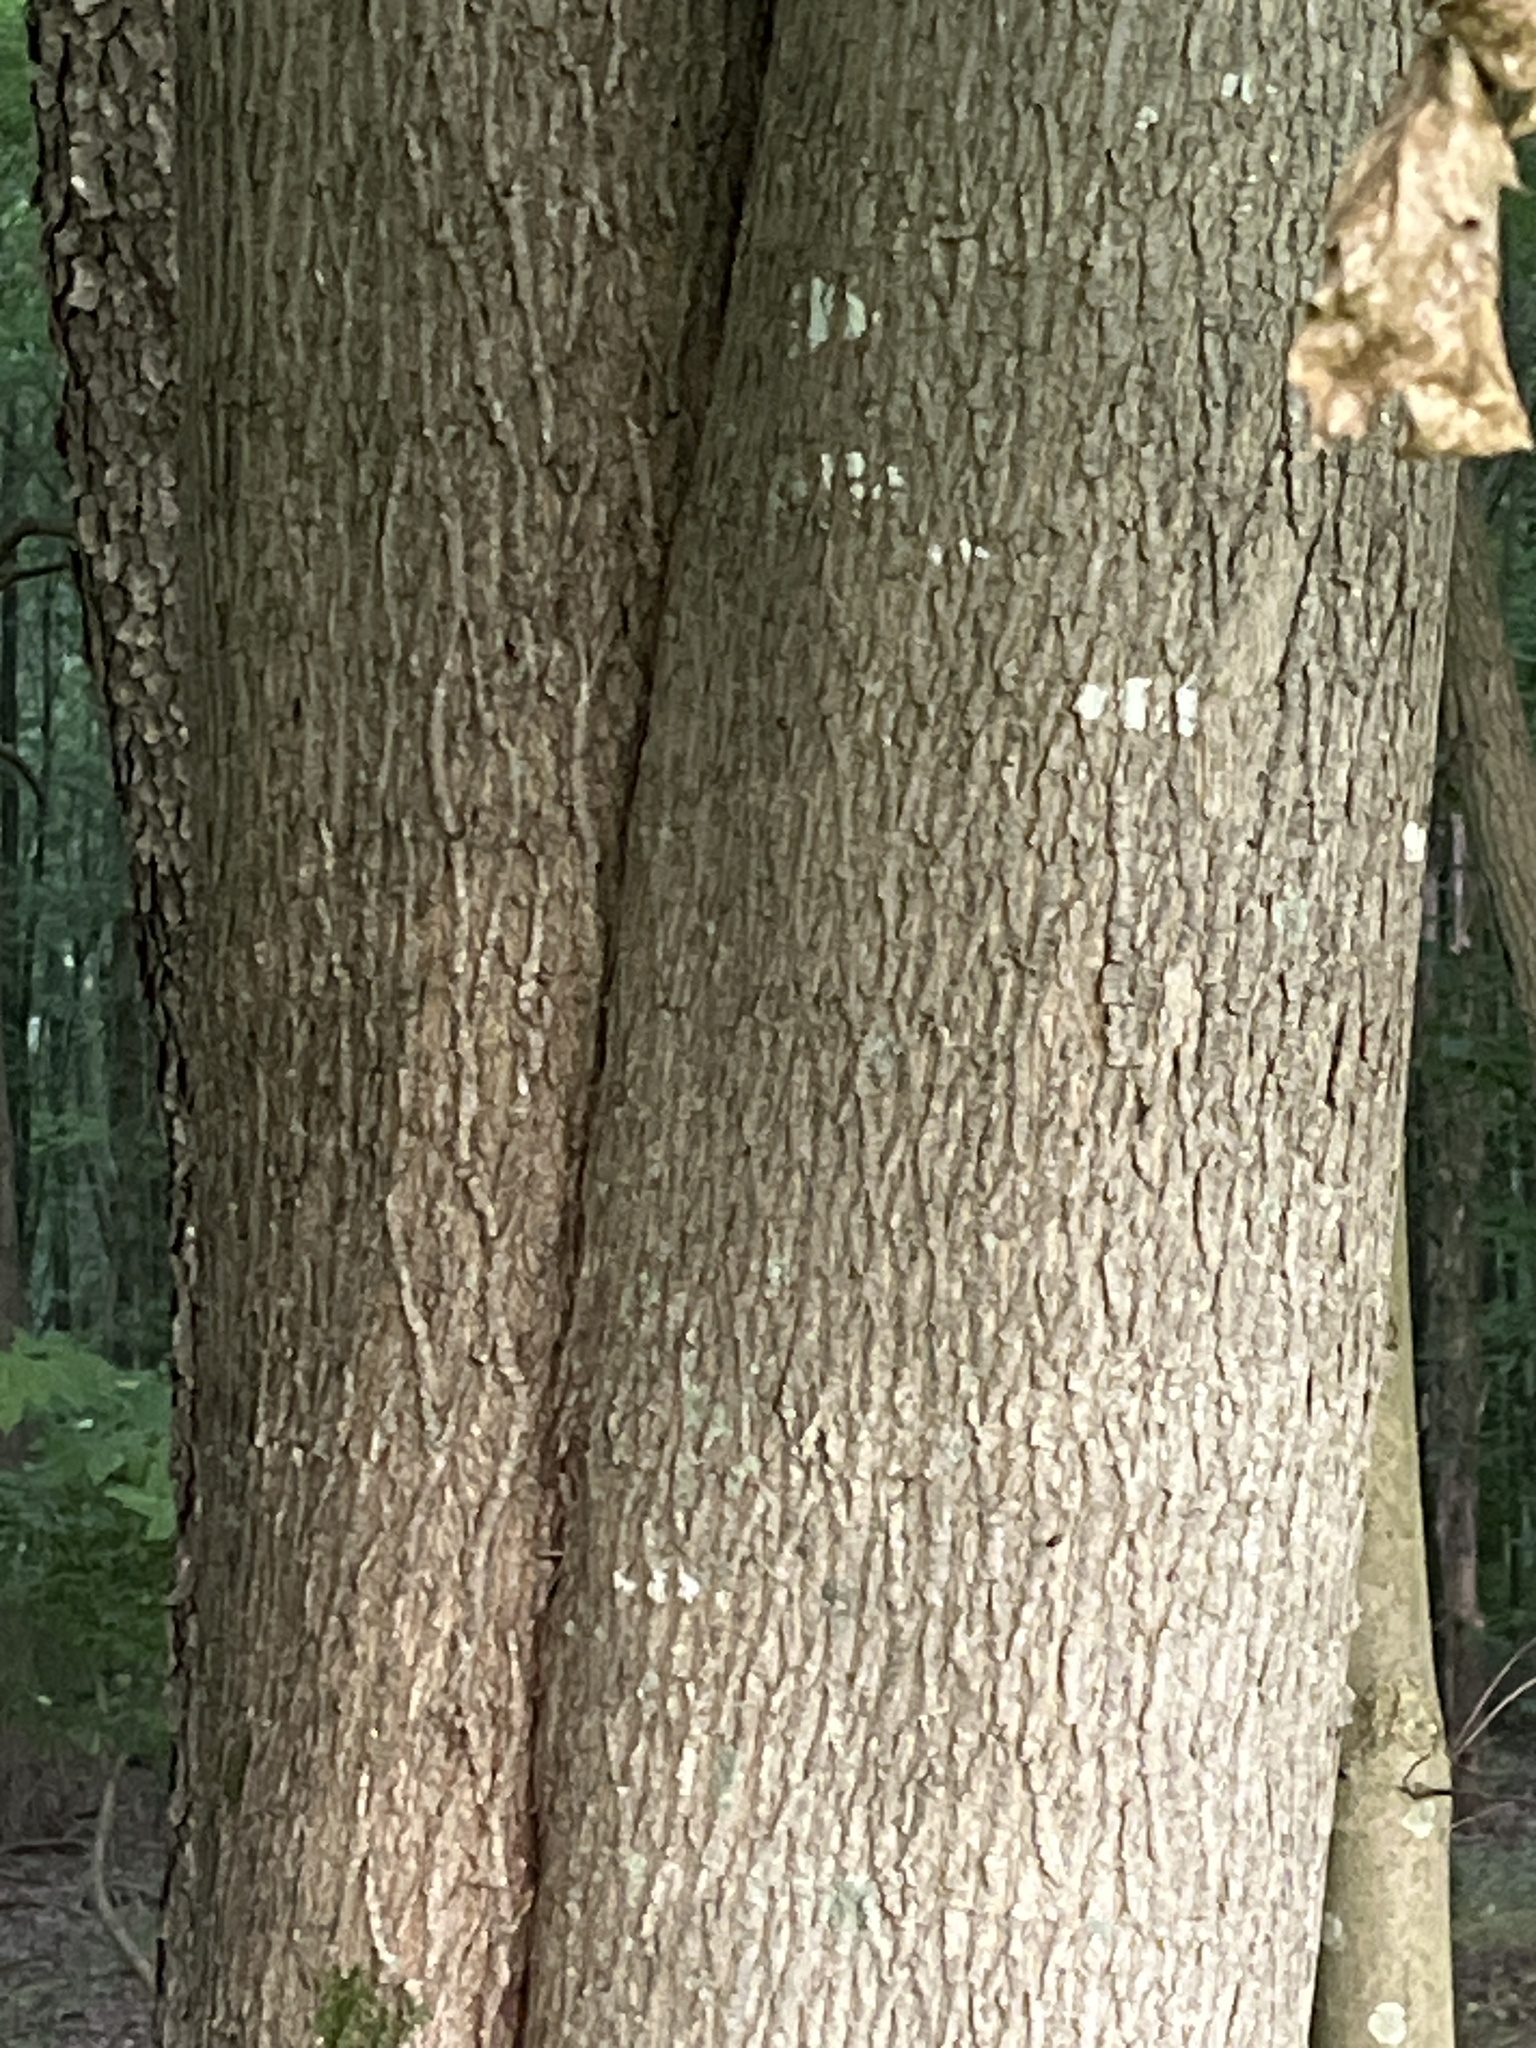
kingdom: Plantae
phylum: Tracheophyta
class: Magnoliopsida
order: Sapindales
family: Sapindaceae
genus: Acer
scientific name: Acer platanoides
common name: Norway maple
